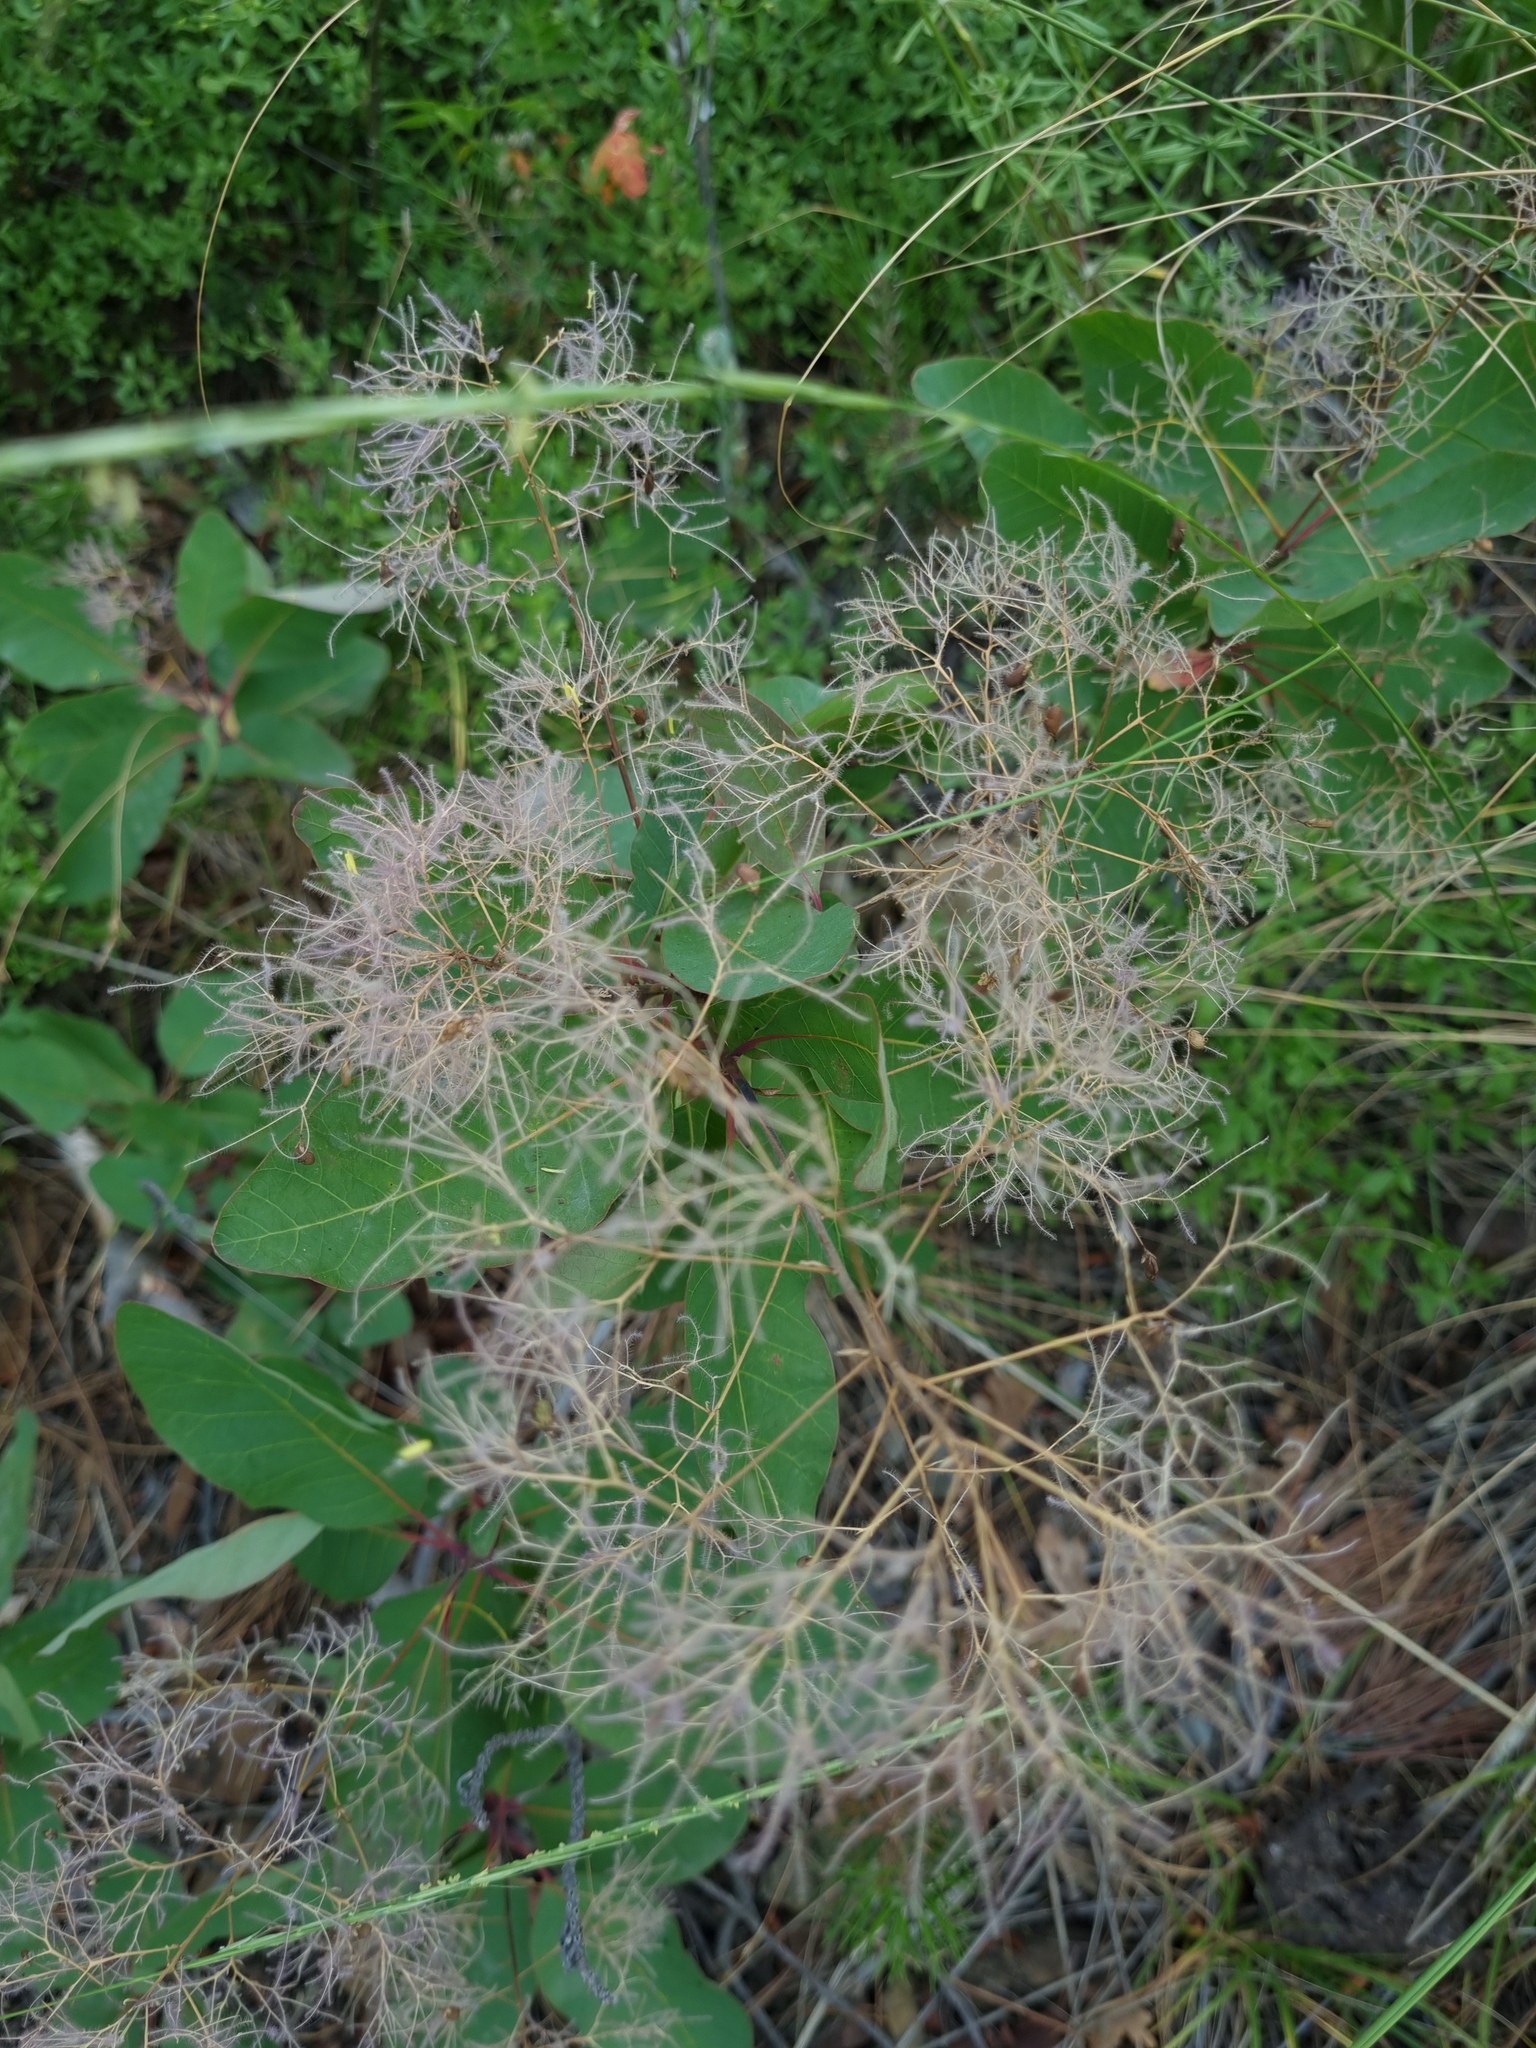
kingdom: Plantae
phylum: Tracheophyta
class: Magnoliopsida
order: Sapindales
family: Anacardiaceae
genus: Cotinus
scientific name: Cotinus coggygria
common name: Smoke-tree
